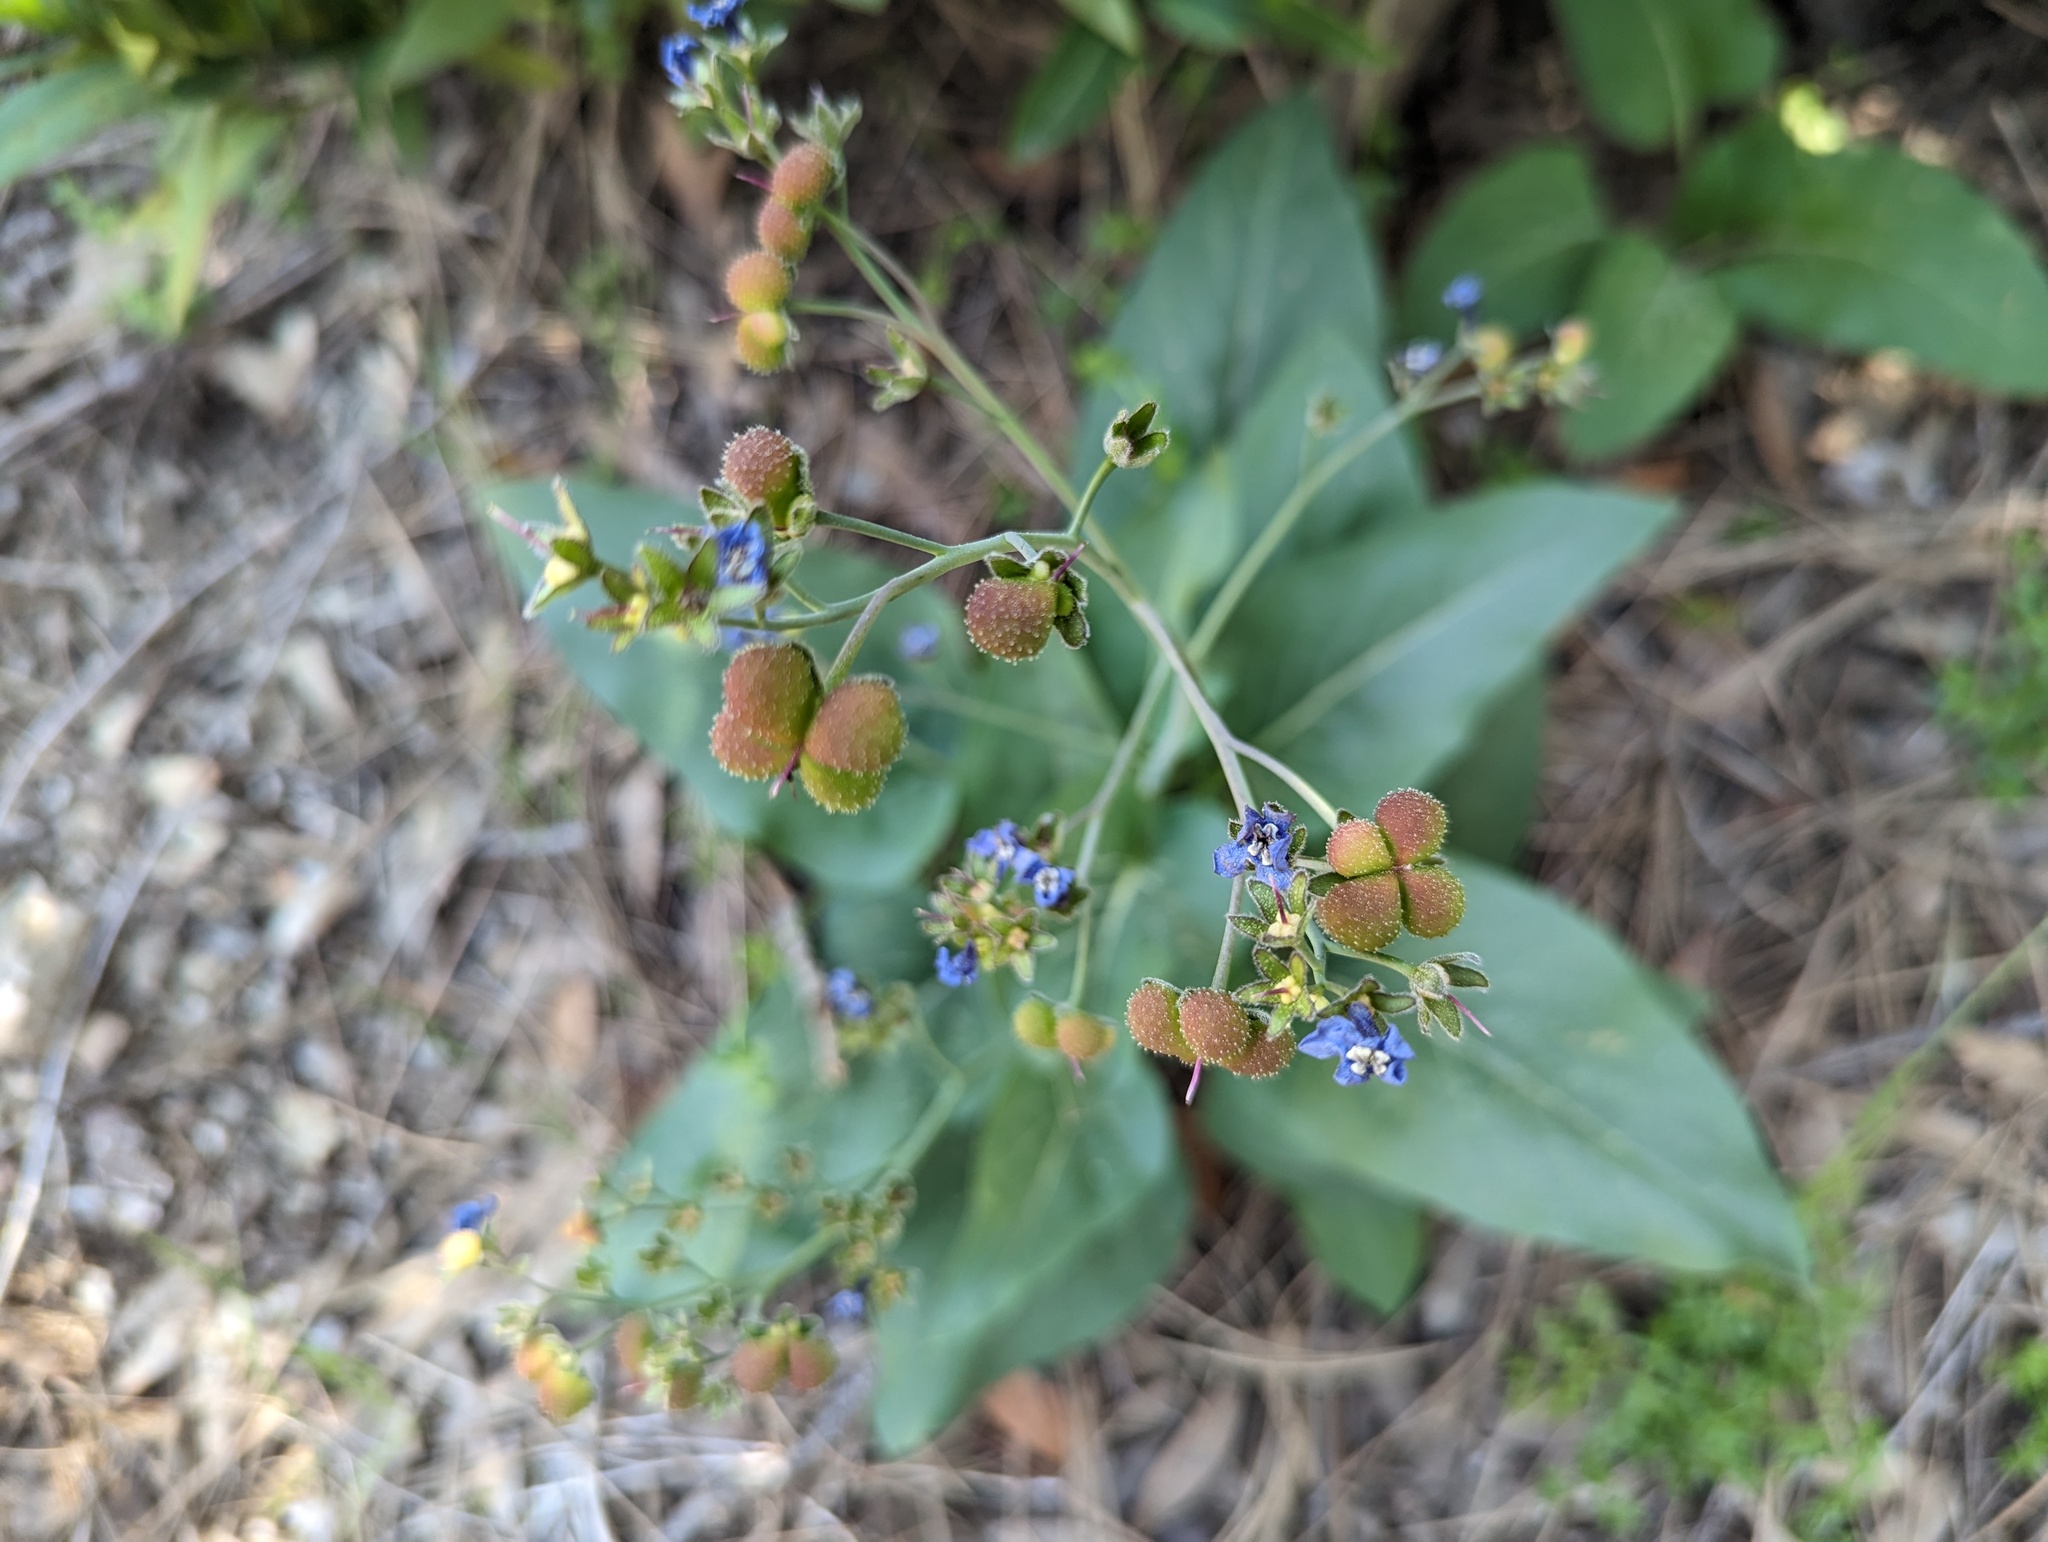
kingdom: Plantae
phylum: Tracheophyta
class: Magnoliopsida
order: Boraginales
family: Boraginaceae
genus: Adelinia
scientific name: Adelinia grande
